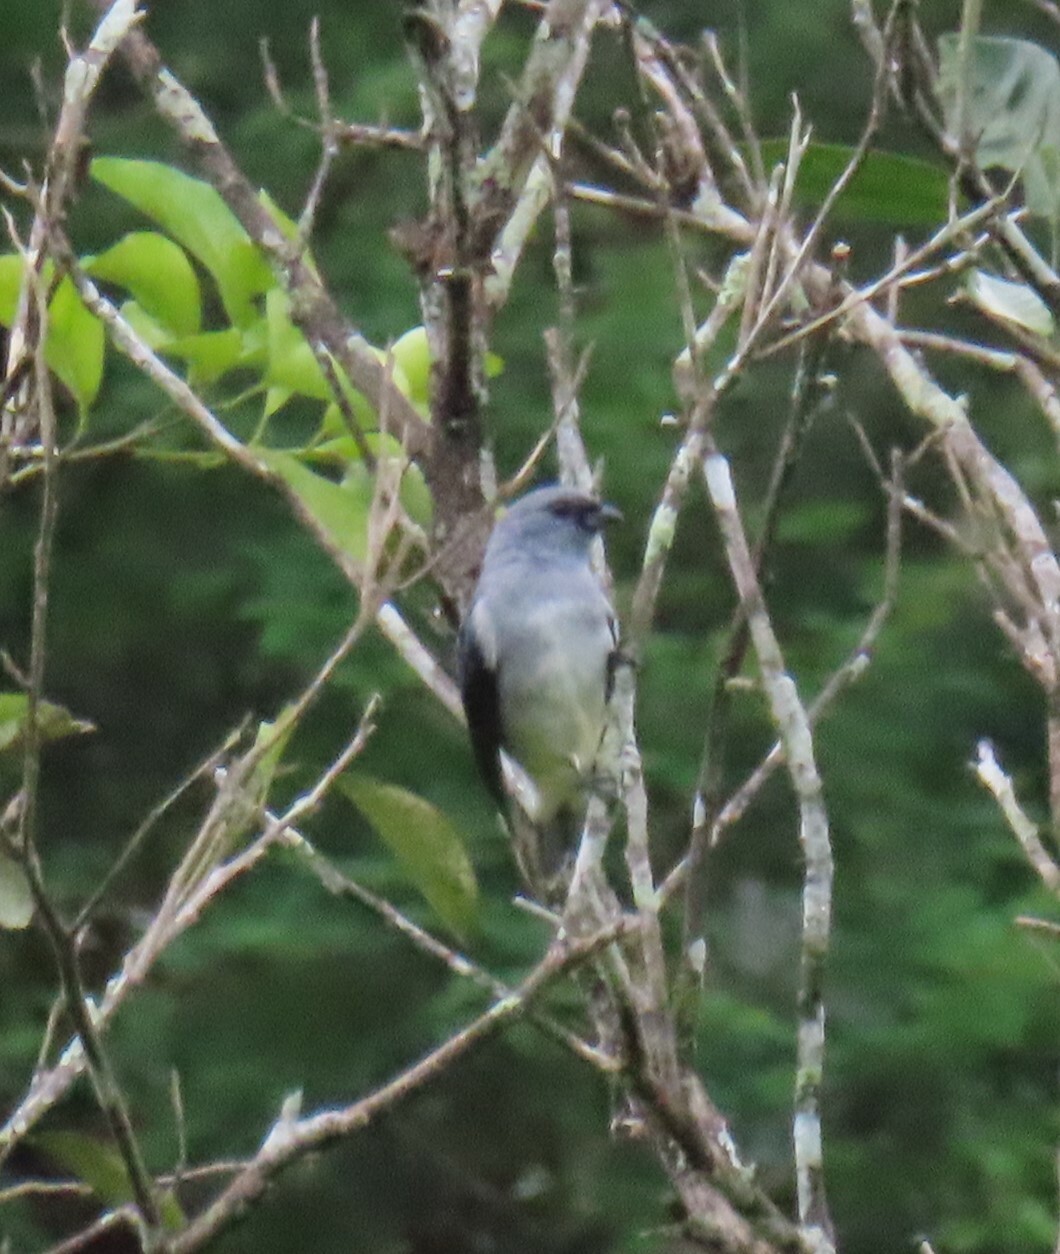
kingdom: Animalia
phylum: Chordata
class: Aves
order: Passeriformes
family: Thraupidae
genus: Tangara
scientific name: Tangara inornata
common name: Plain-colored tanager
